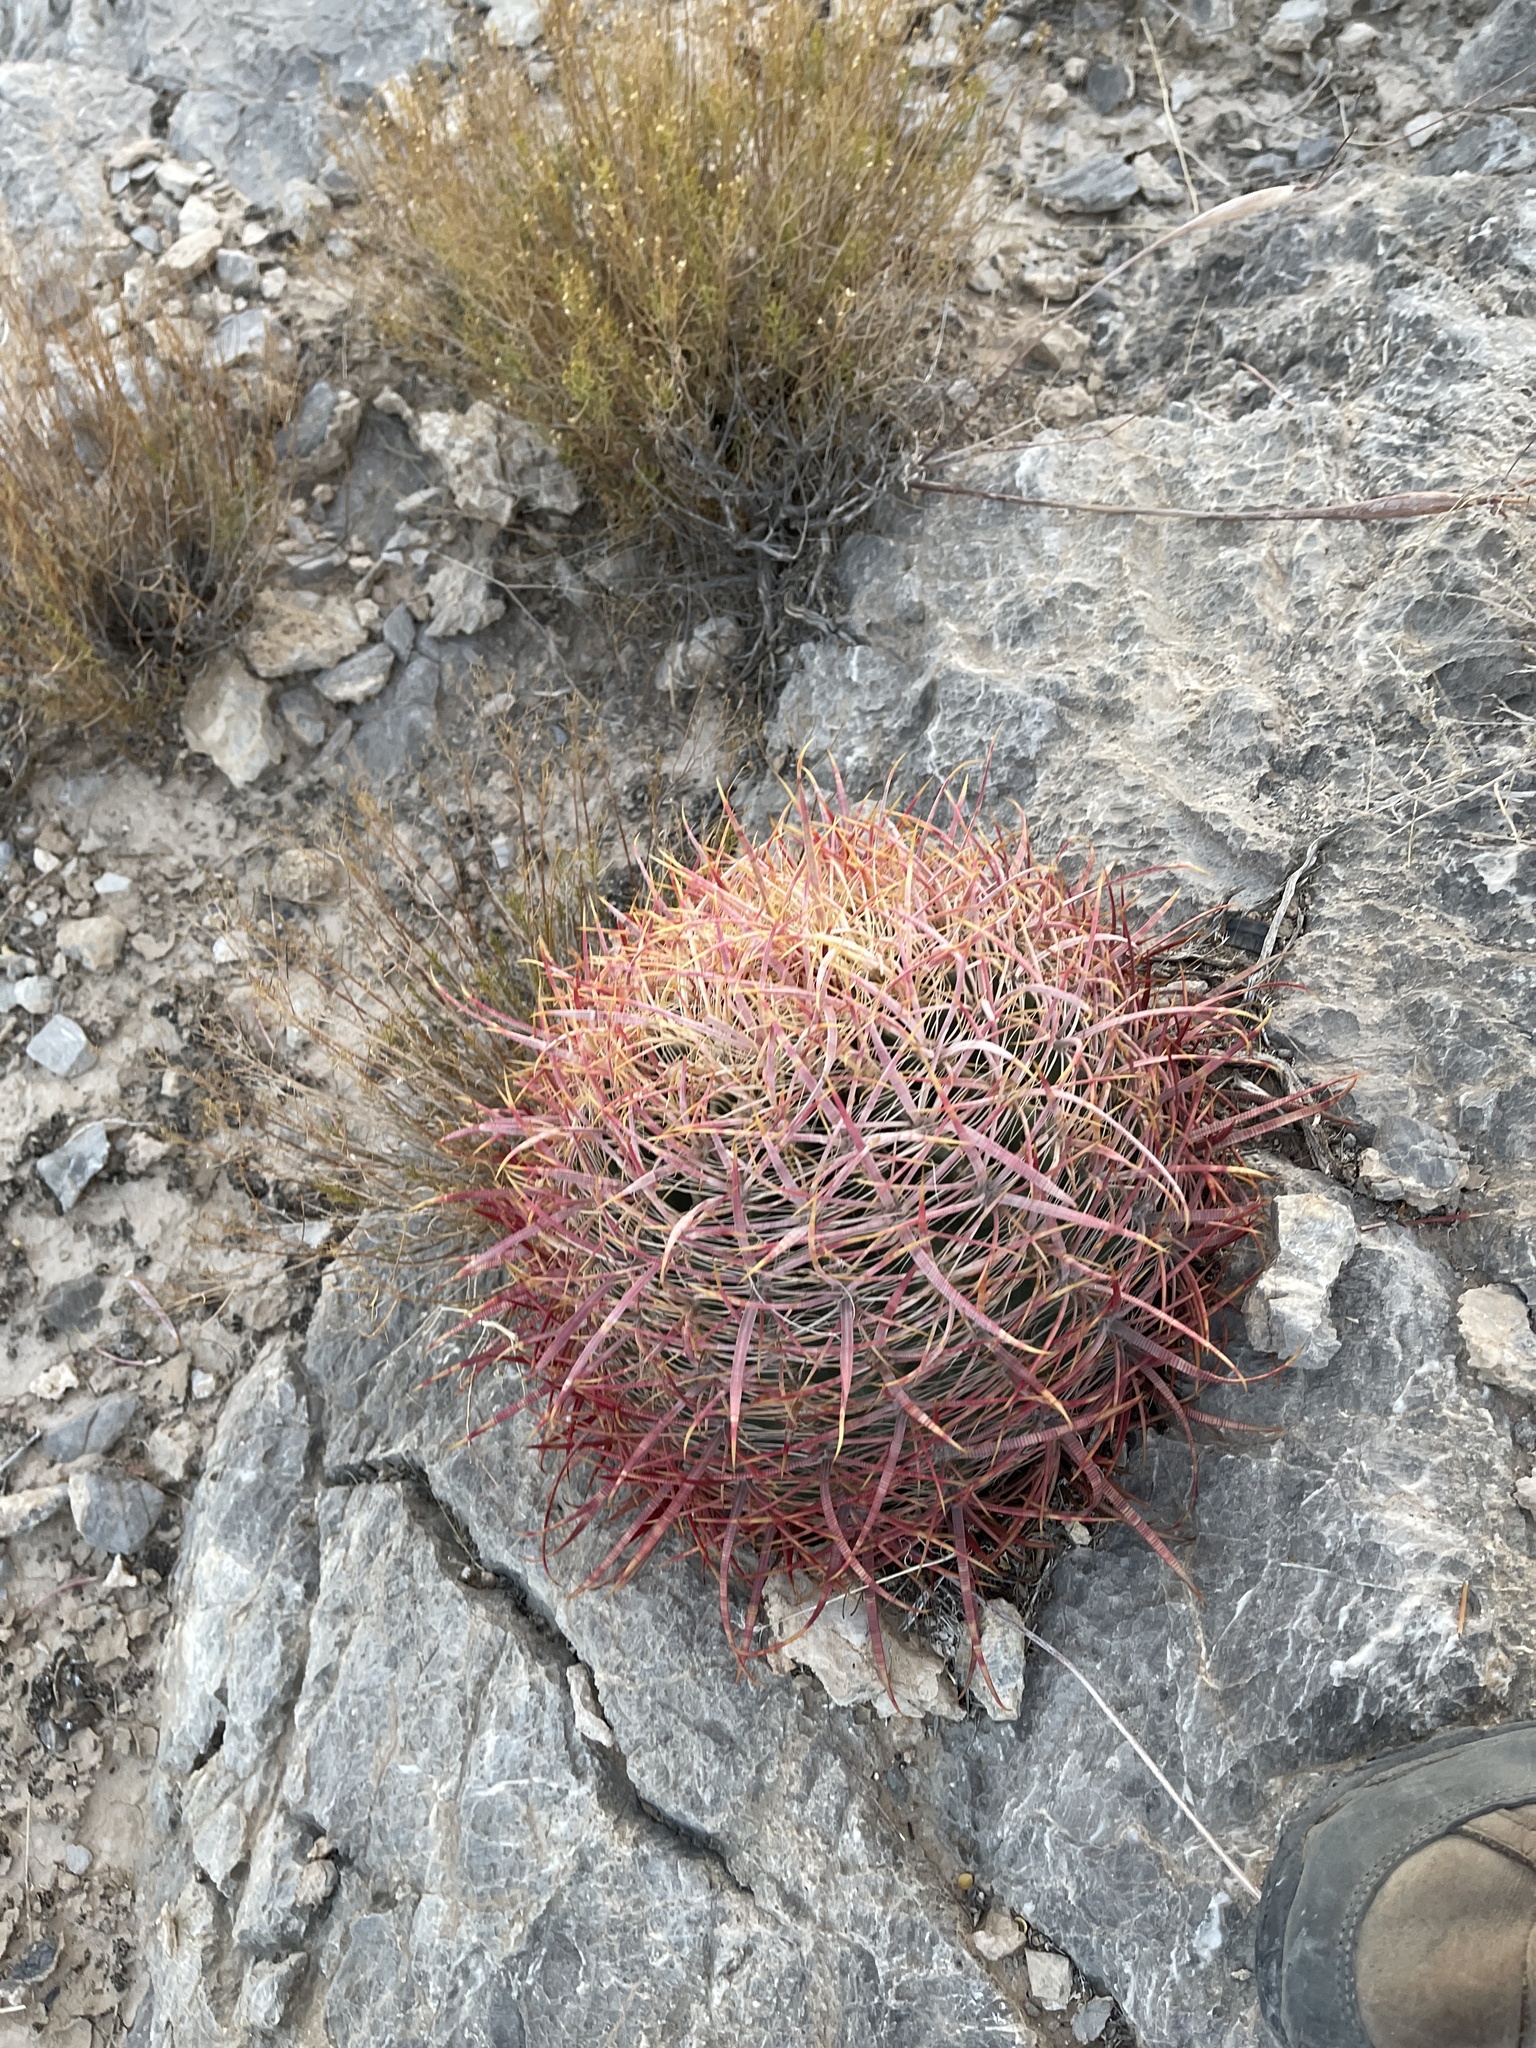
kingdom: Plantae
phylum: Tracheophyta
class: Magnoliopsida
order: Caryophyllales
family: Cactaceae
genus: Ferocactus
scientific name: Ferocactus cylindraceus
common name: California barrel cactus
